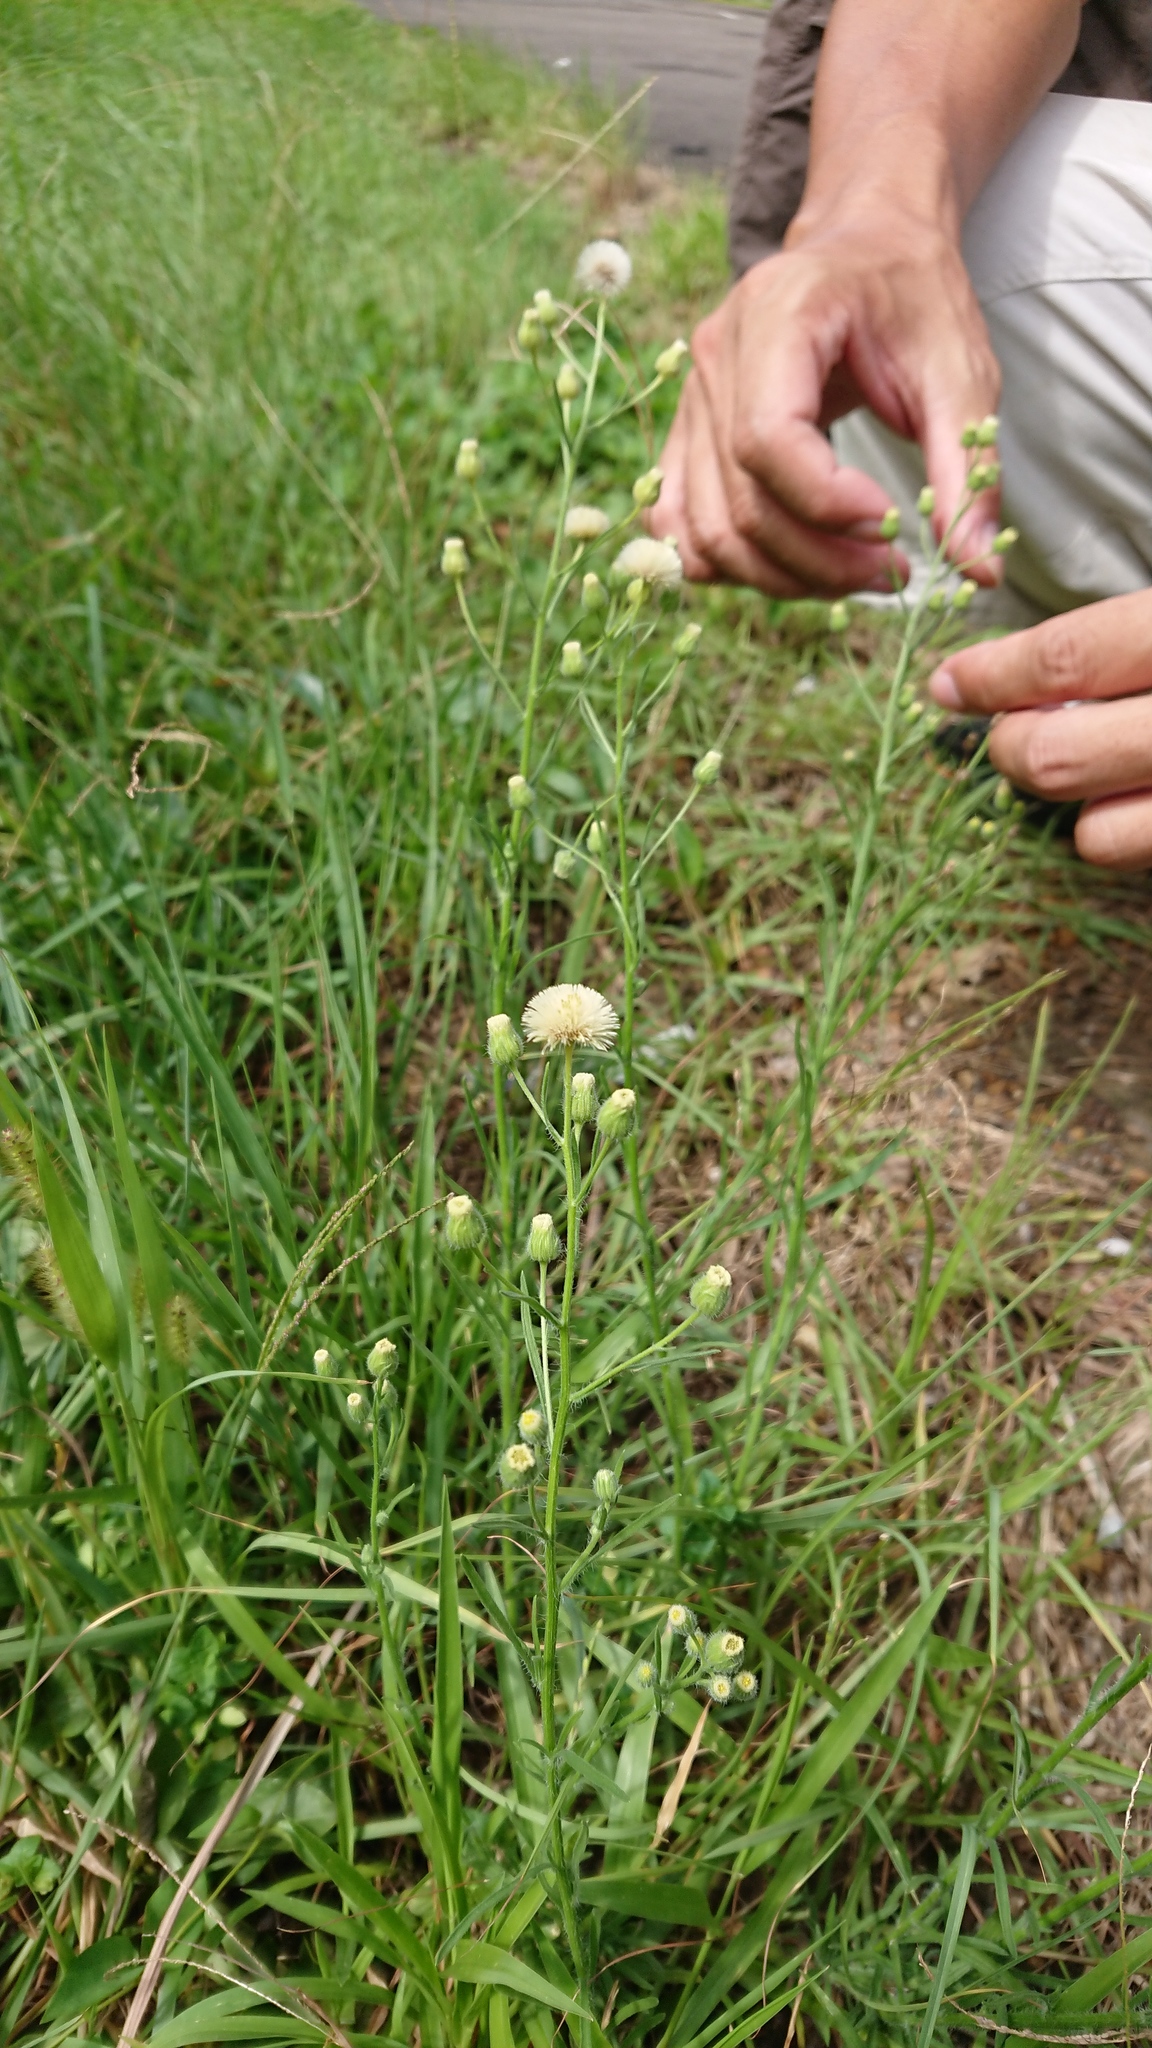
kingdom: Plantae
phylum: Tracheophyta
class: Magnoliopsida
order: Asterales
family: Asteraceae
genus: Erigeron
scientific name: Erigeron bonariensis
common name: Argentine fleabane
